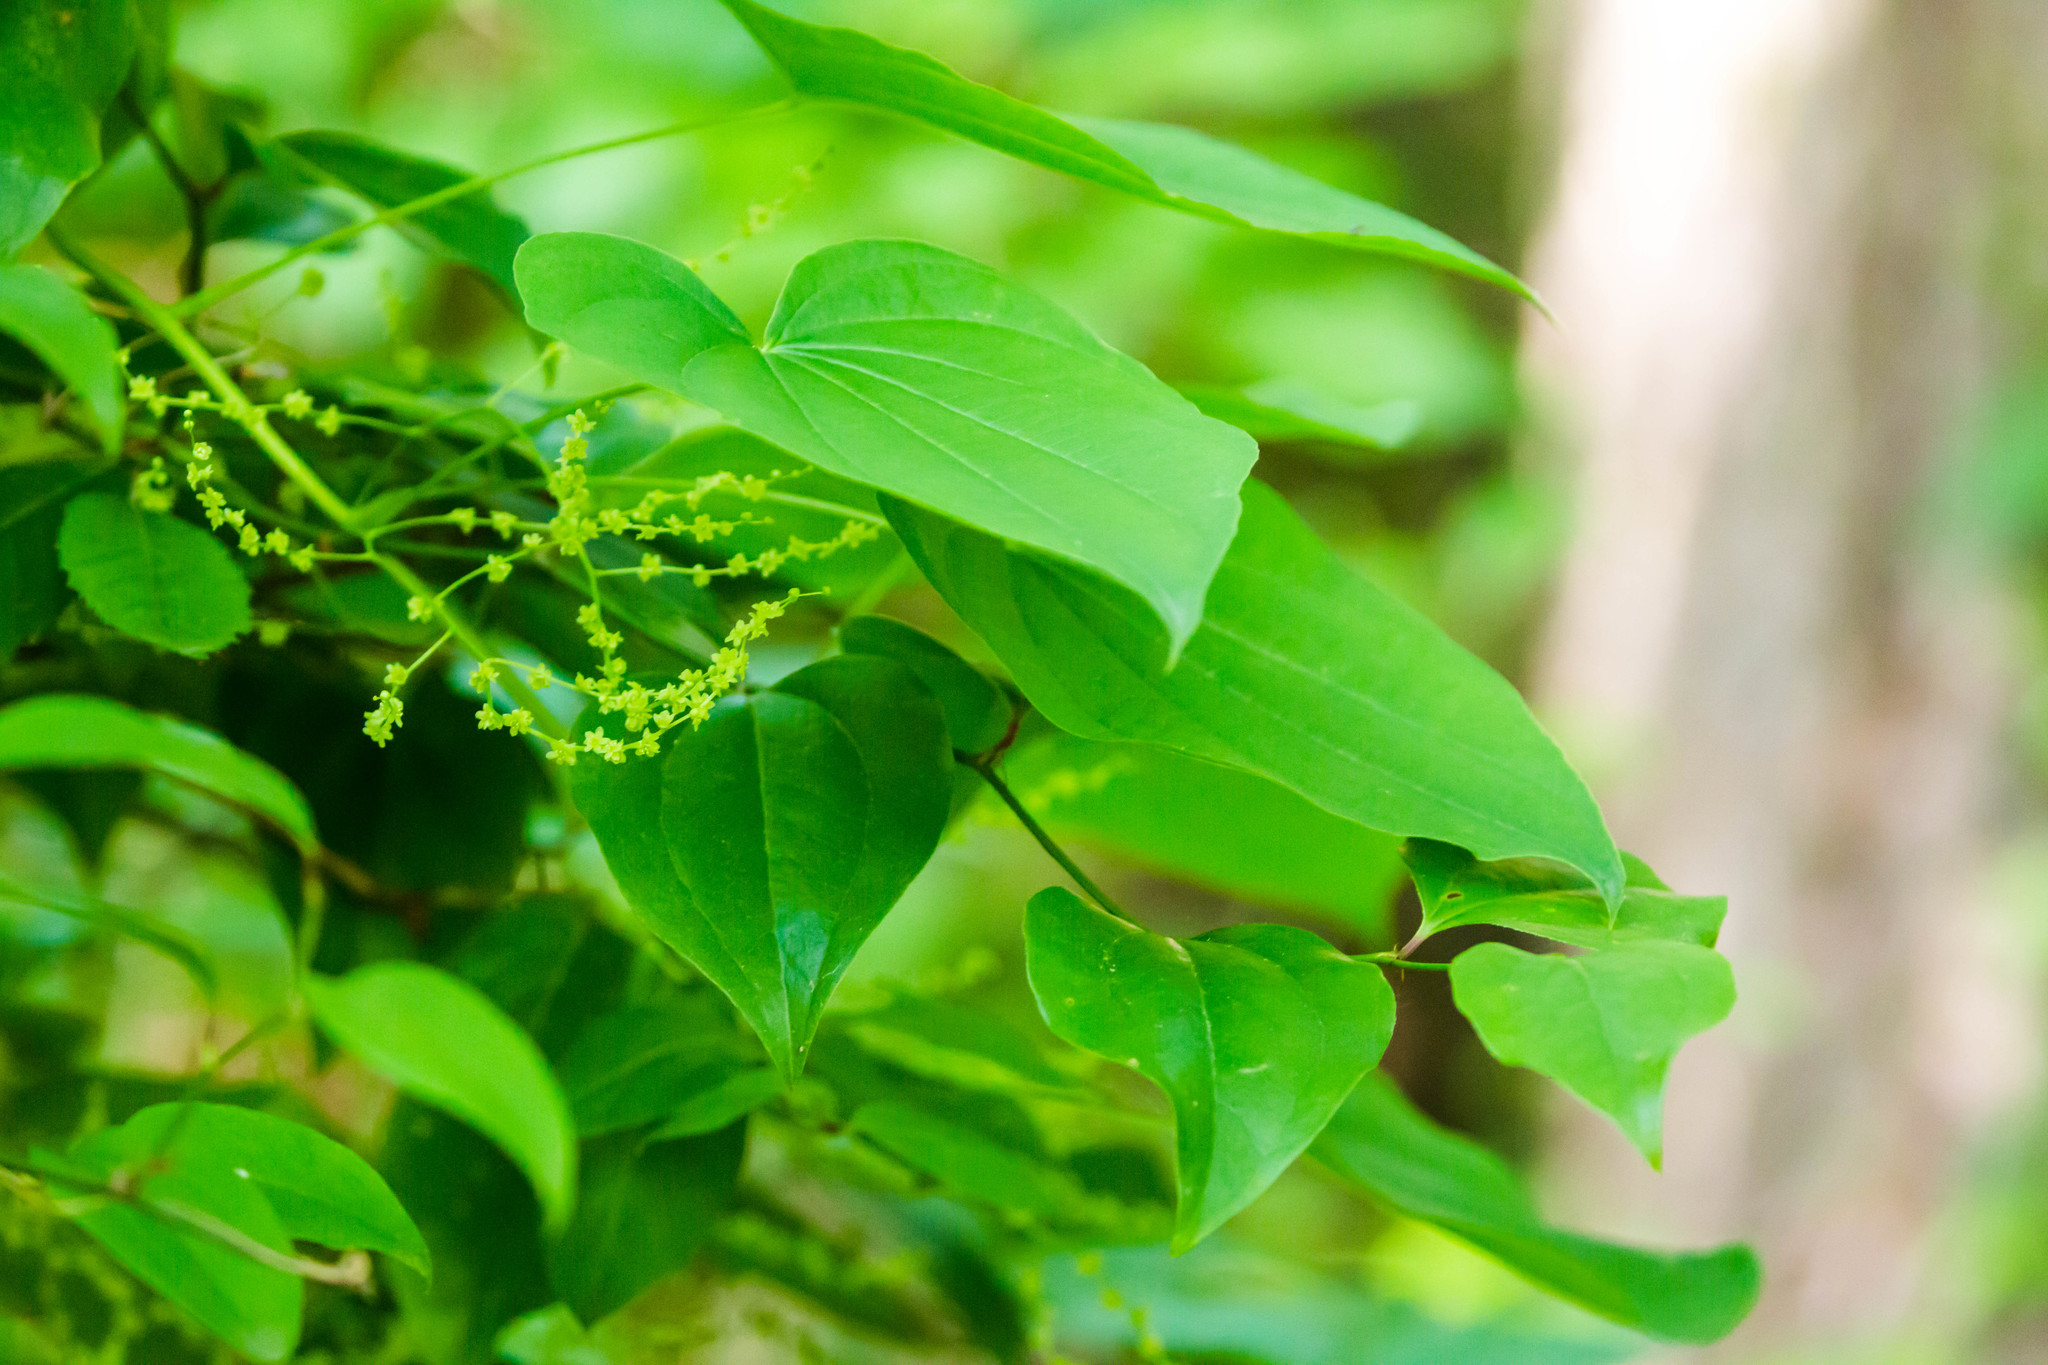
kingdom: Plantae
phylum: Tracheophyta
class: Liliopsida
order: Dioscoreales
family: Dioscoreaceae
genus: Dioscorea
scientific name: Dioscorea villosa
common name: Wild yam
